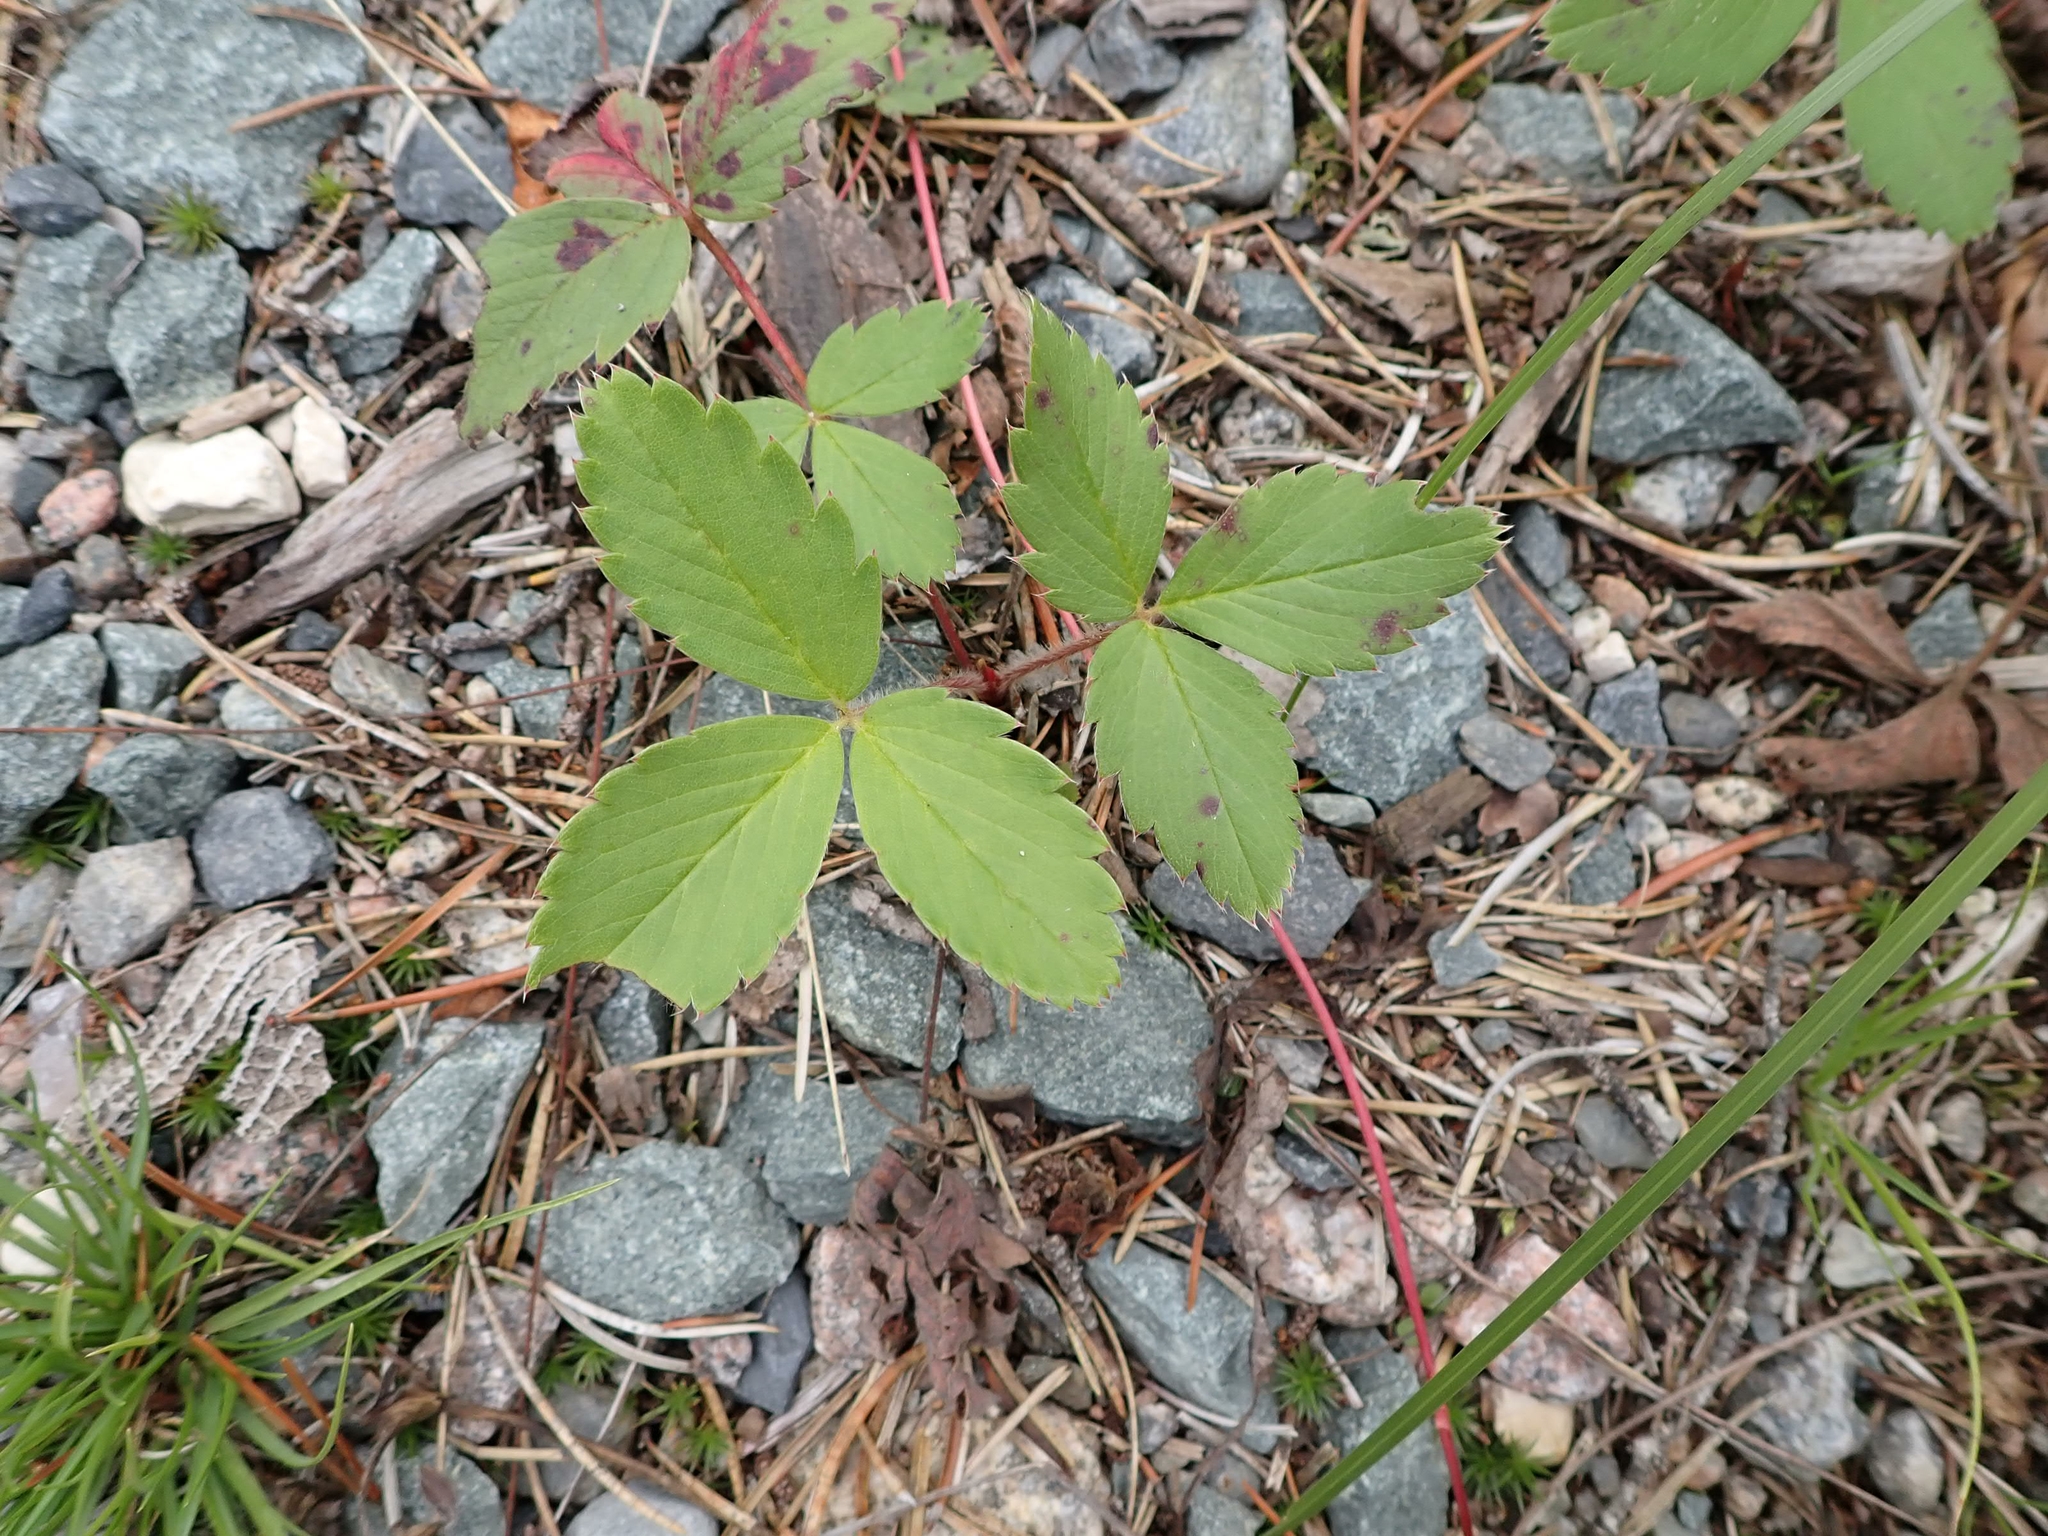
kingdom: Plantae
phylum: Tracheophyta
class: Magnoliopsida
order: Rosales
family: Rosaceae
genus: Fragaria
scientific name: Fragaria virginiana
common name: Thickleaved wild strawberry
